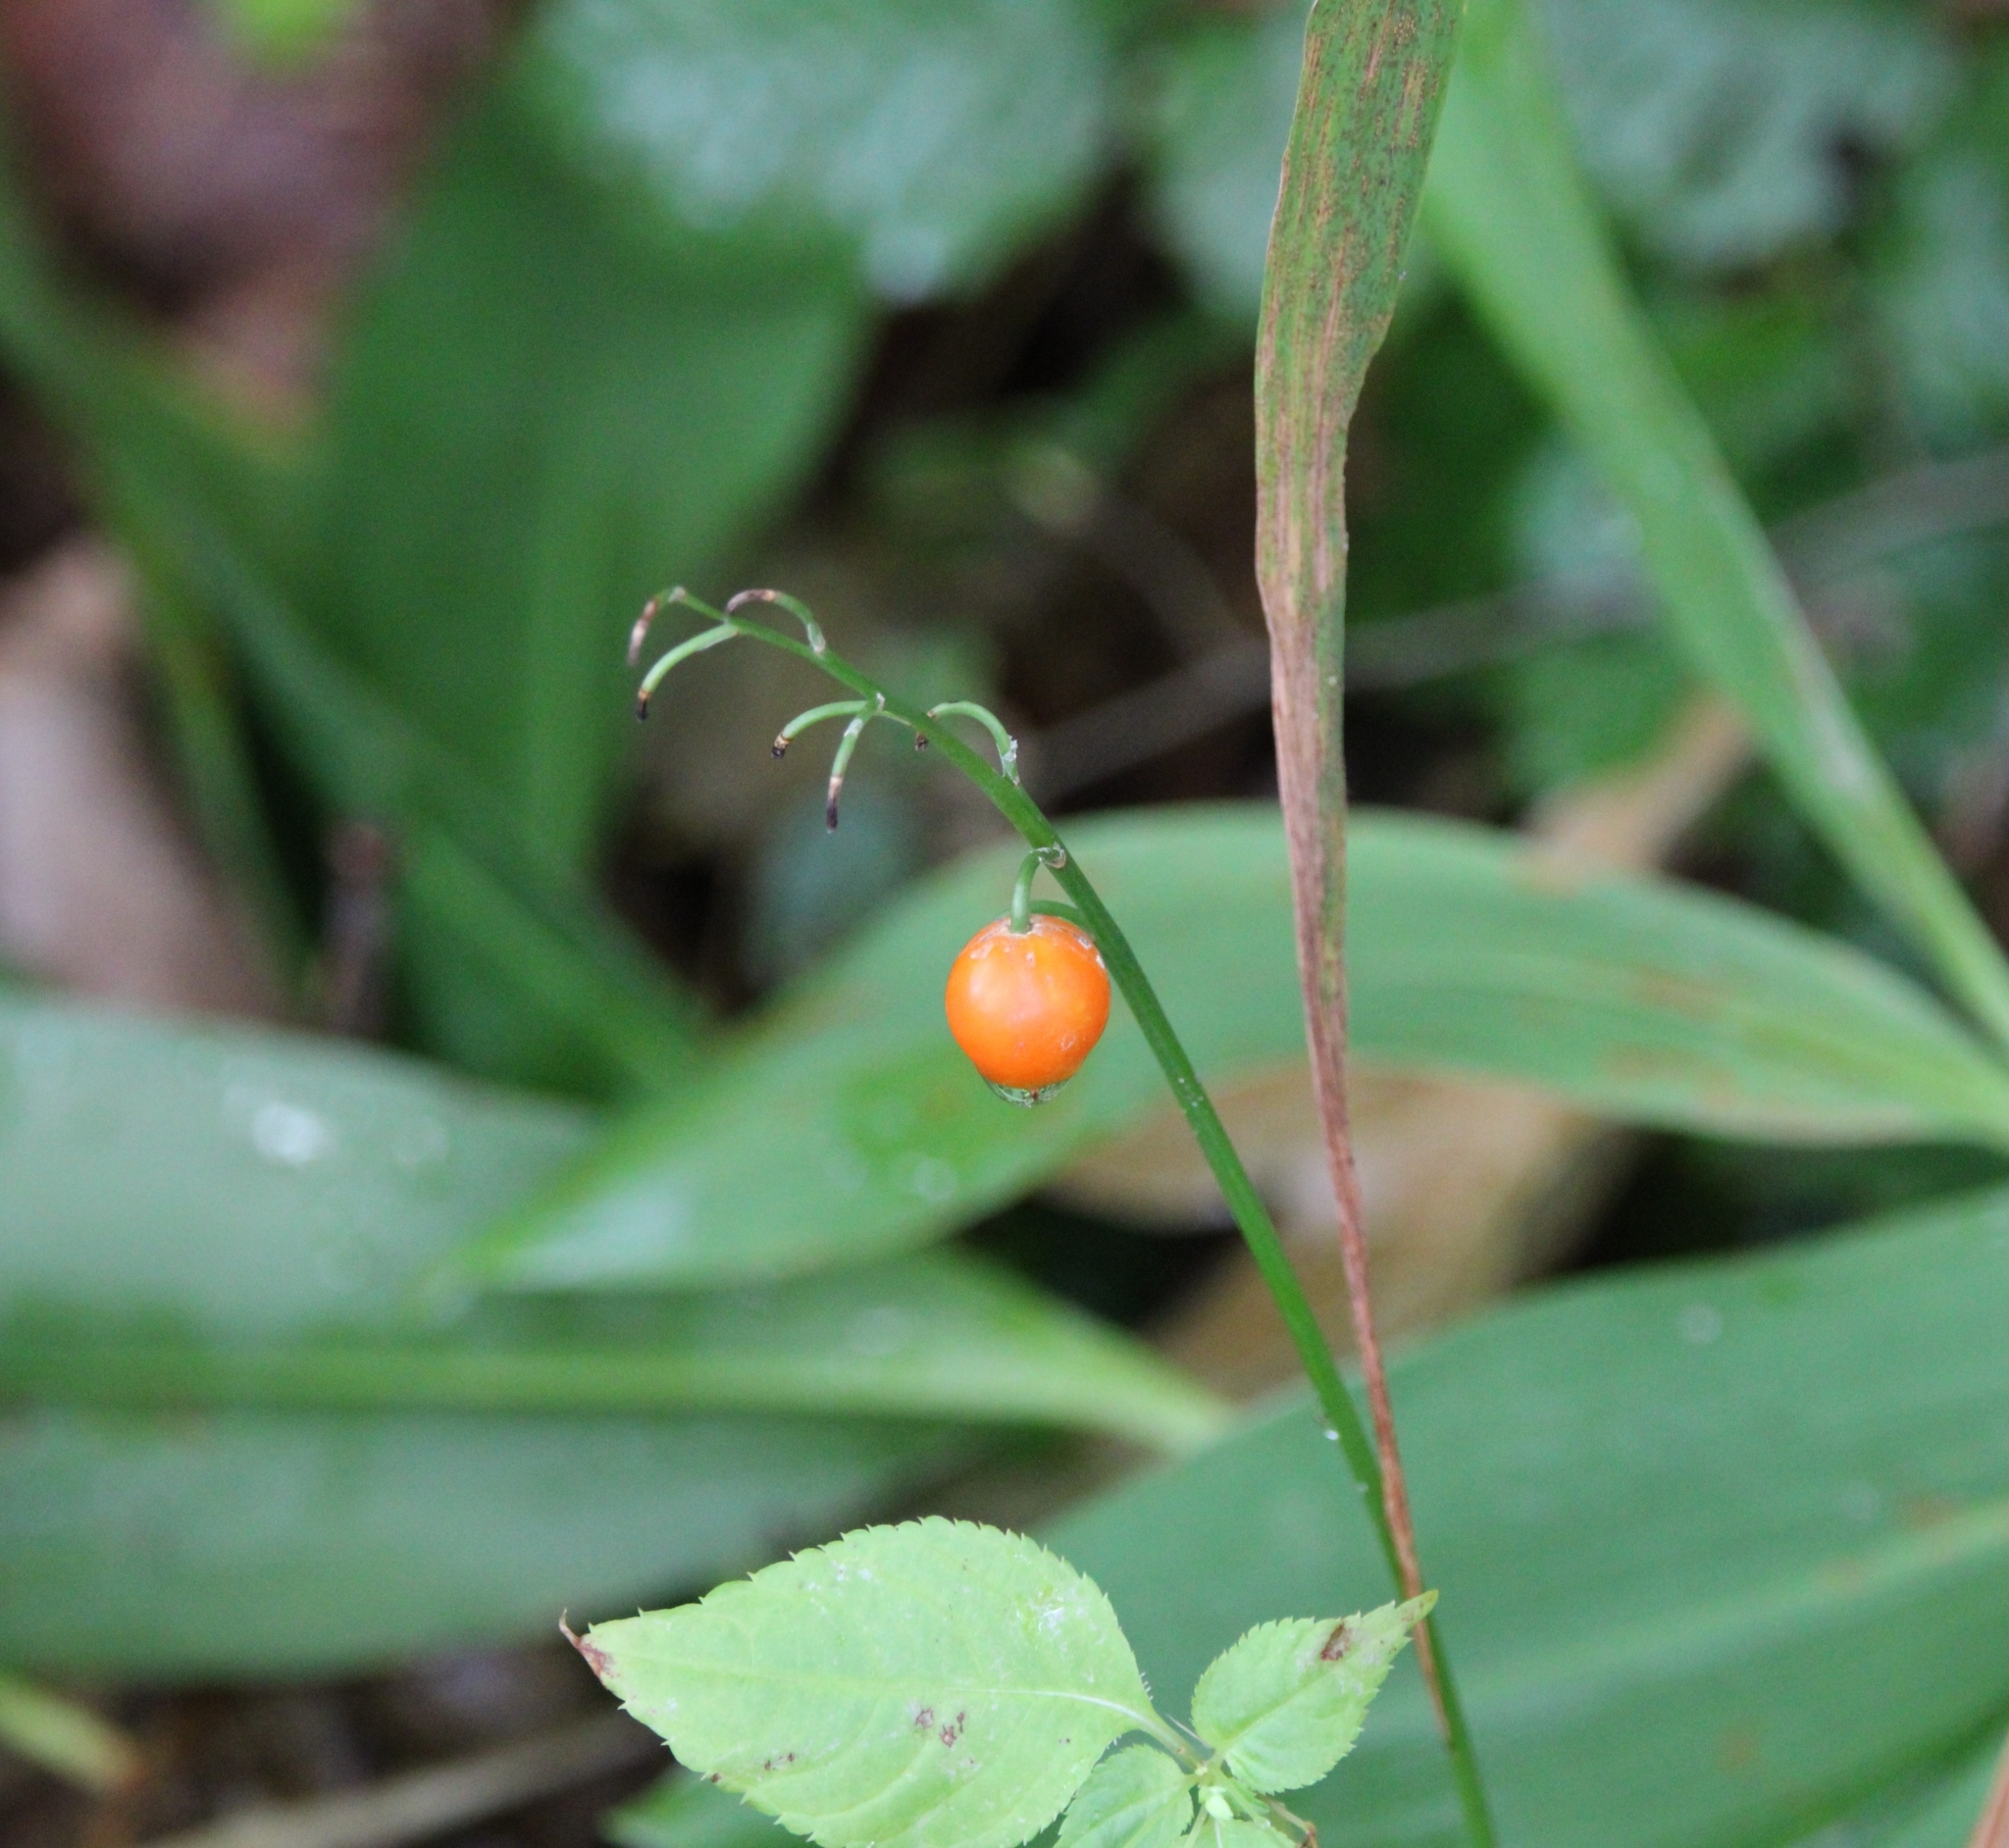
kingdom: Plantae
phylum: Tracheophyta
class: Liliopsida
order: Asparagales
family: Asparagaceae
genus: Convallaria
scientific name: Convallaria majalis
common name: Lily-of-the-valley
